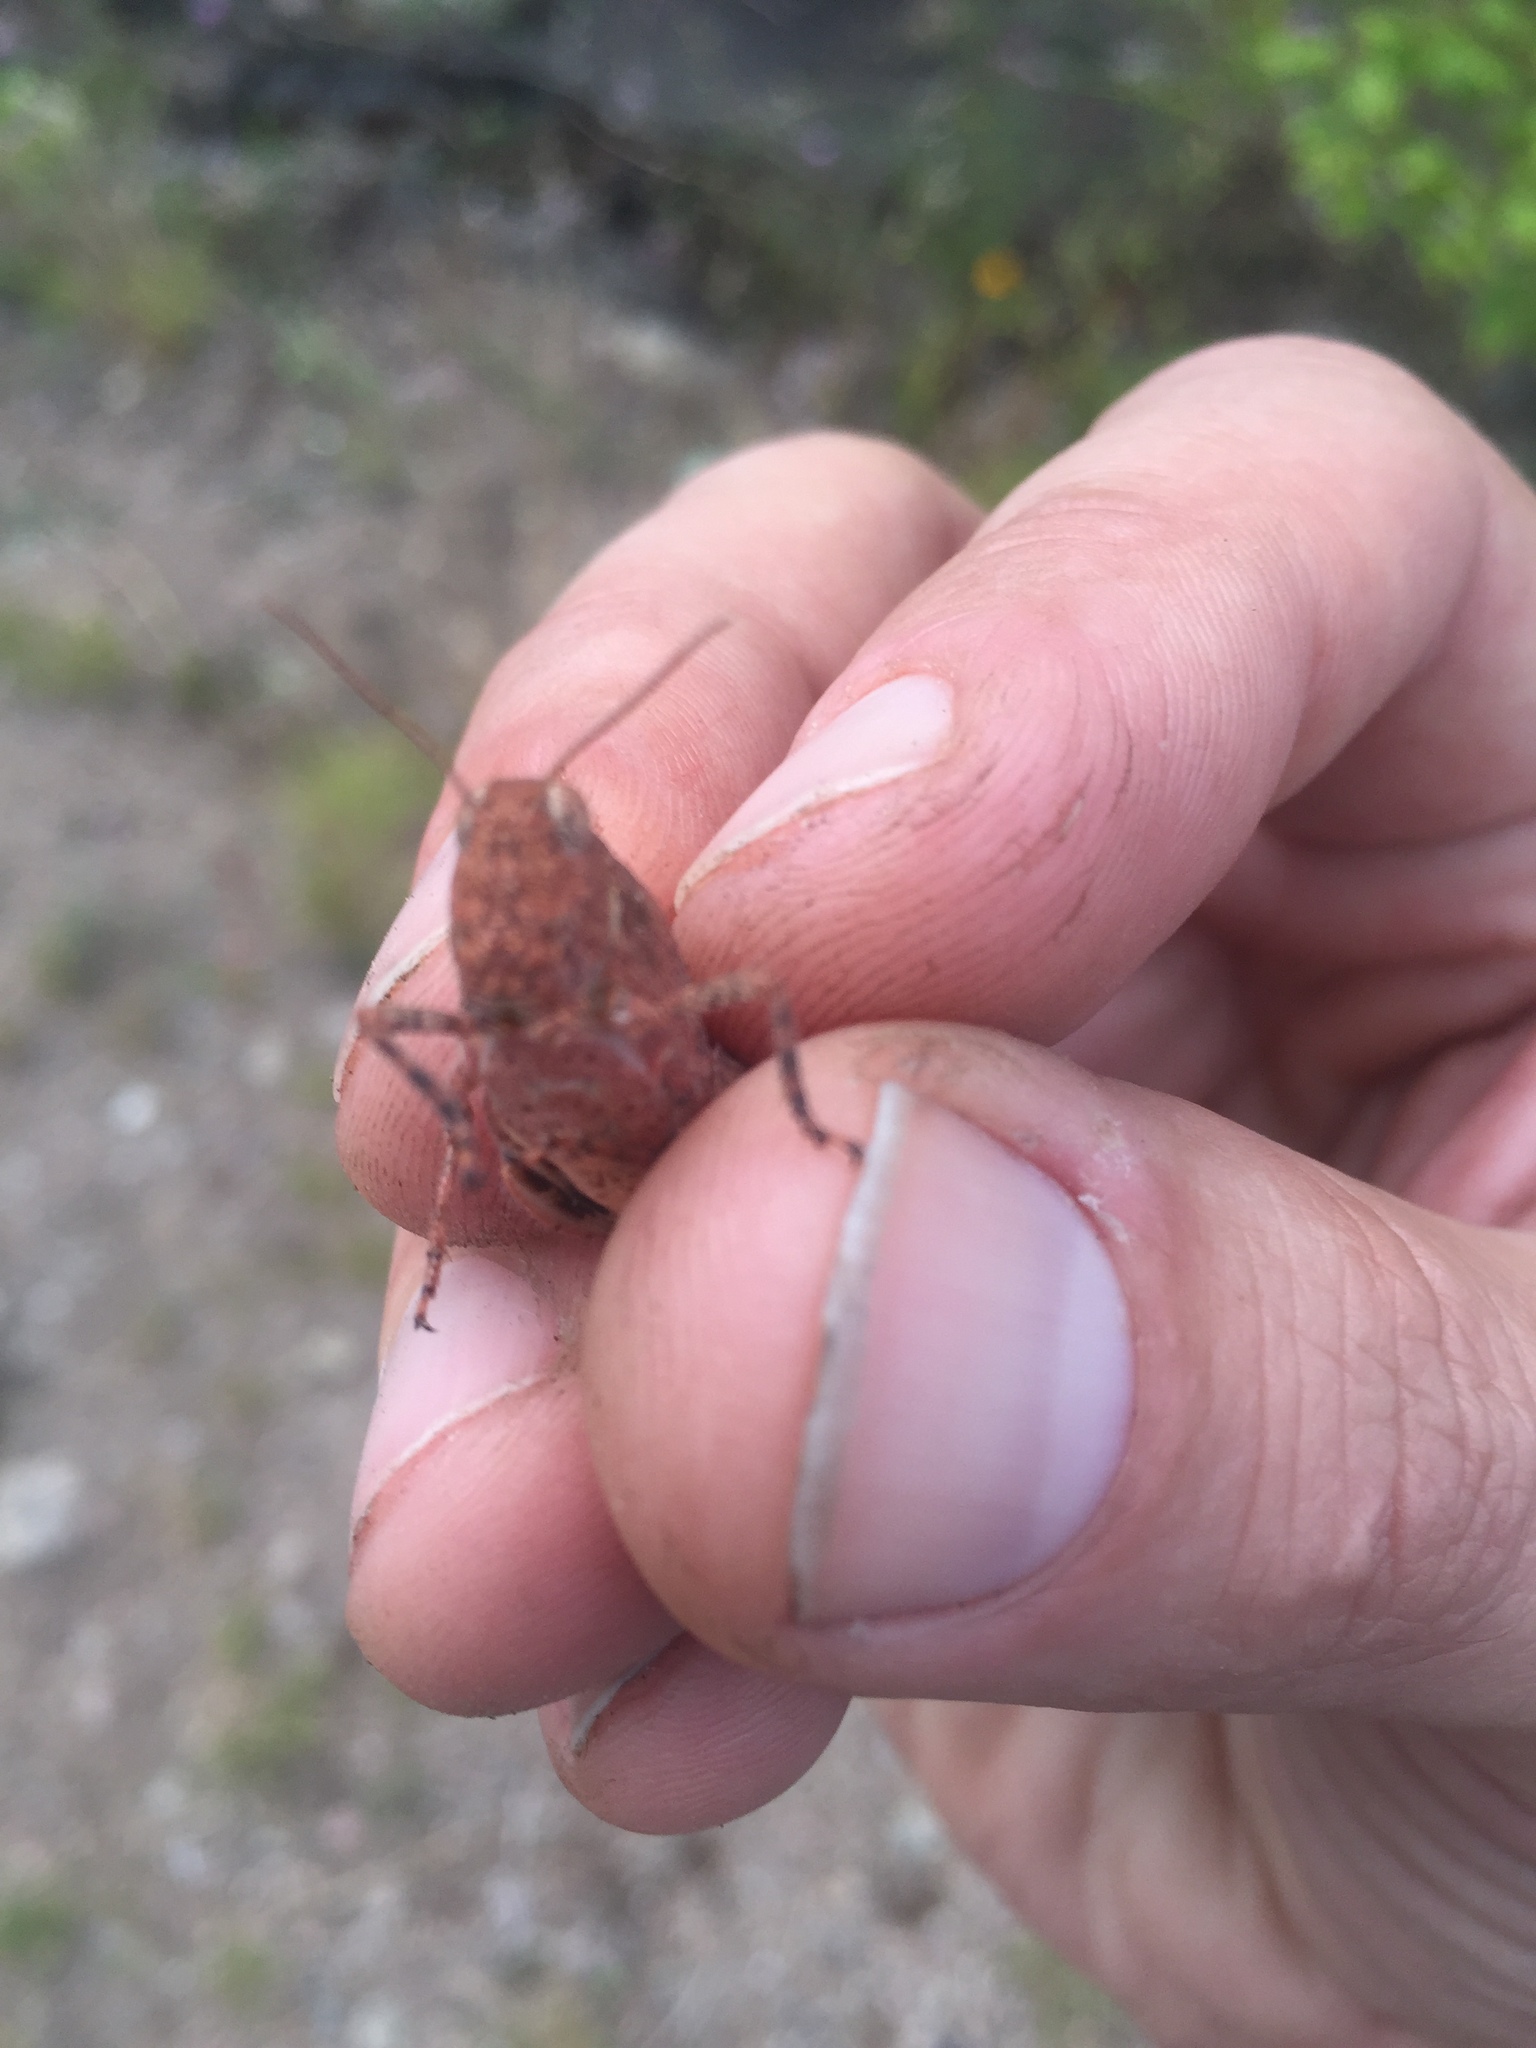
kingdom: Animalia
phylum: Arthropoda
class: Insecta
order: Orthoptera
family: Acrididae
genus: Dissosteira
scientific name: Dissosteira carolina
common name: Carolina grasshopper
